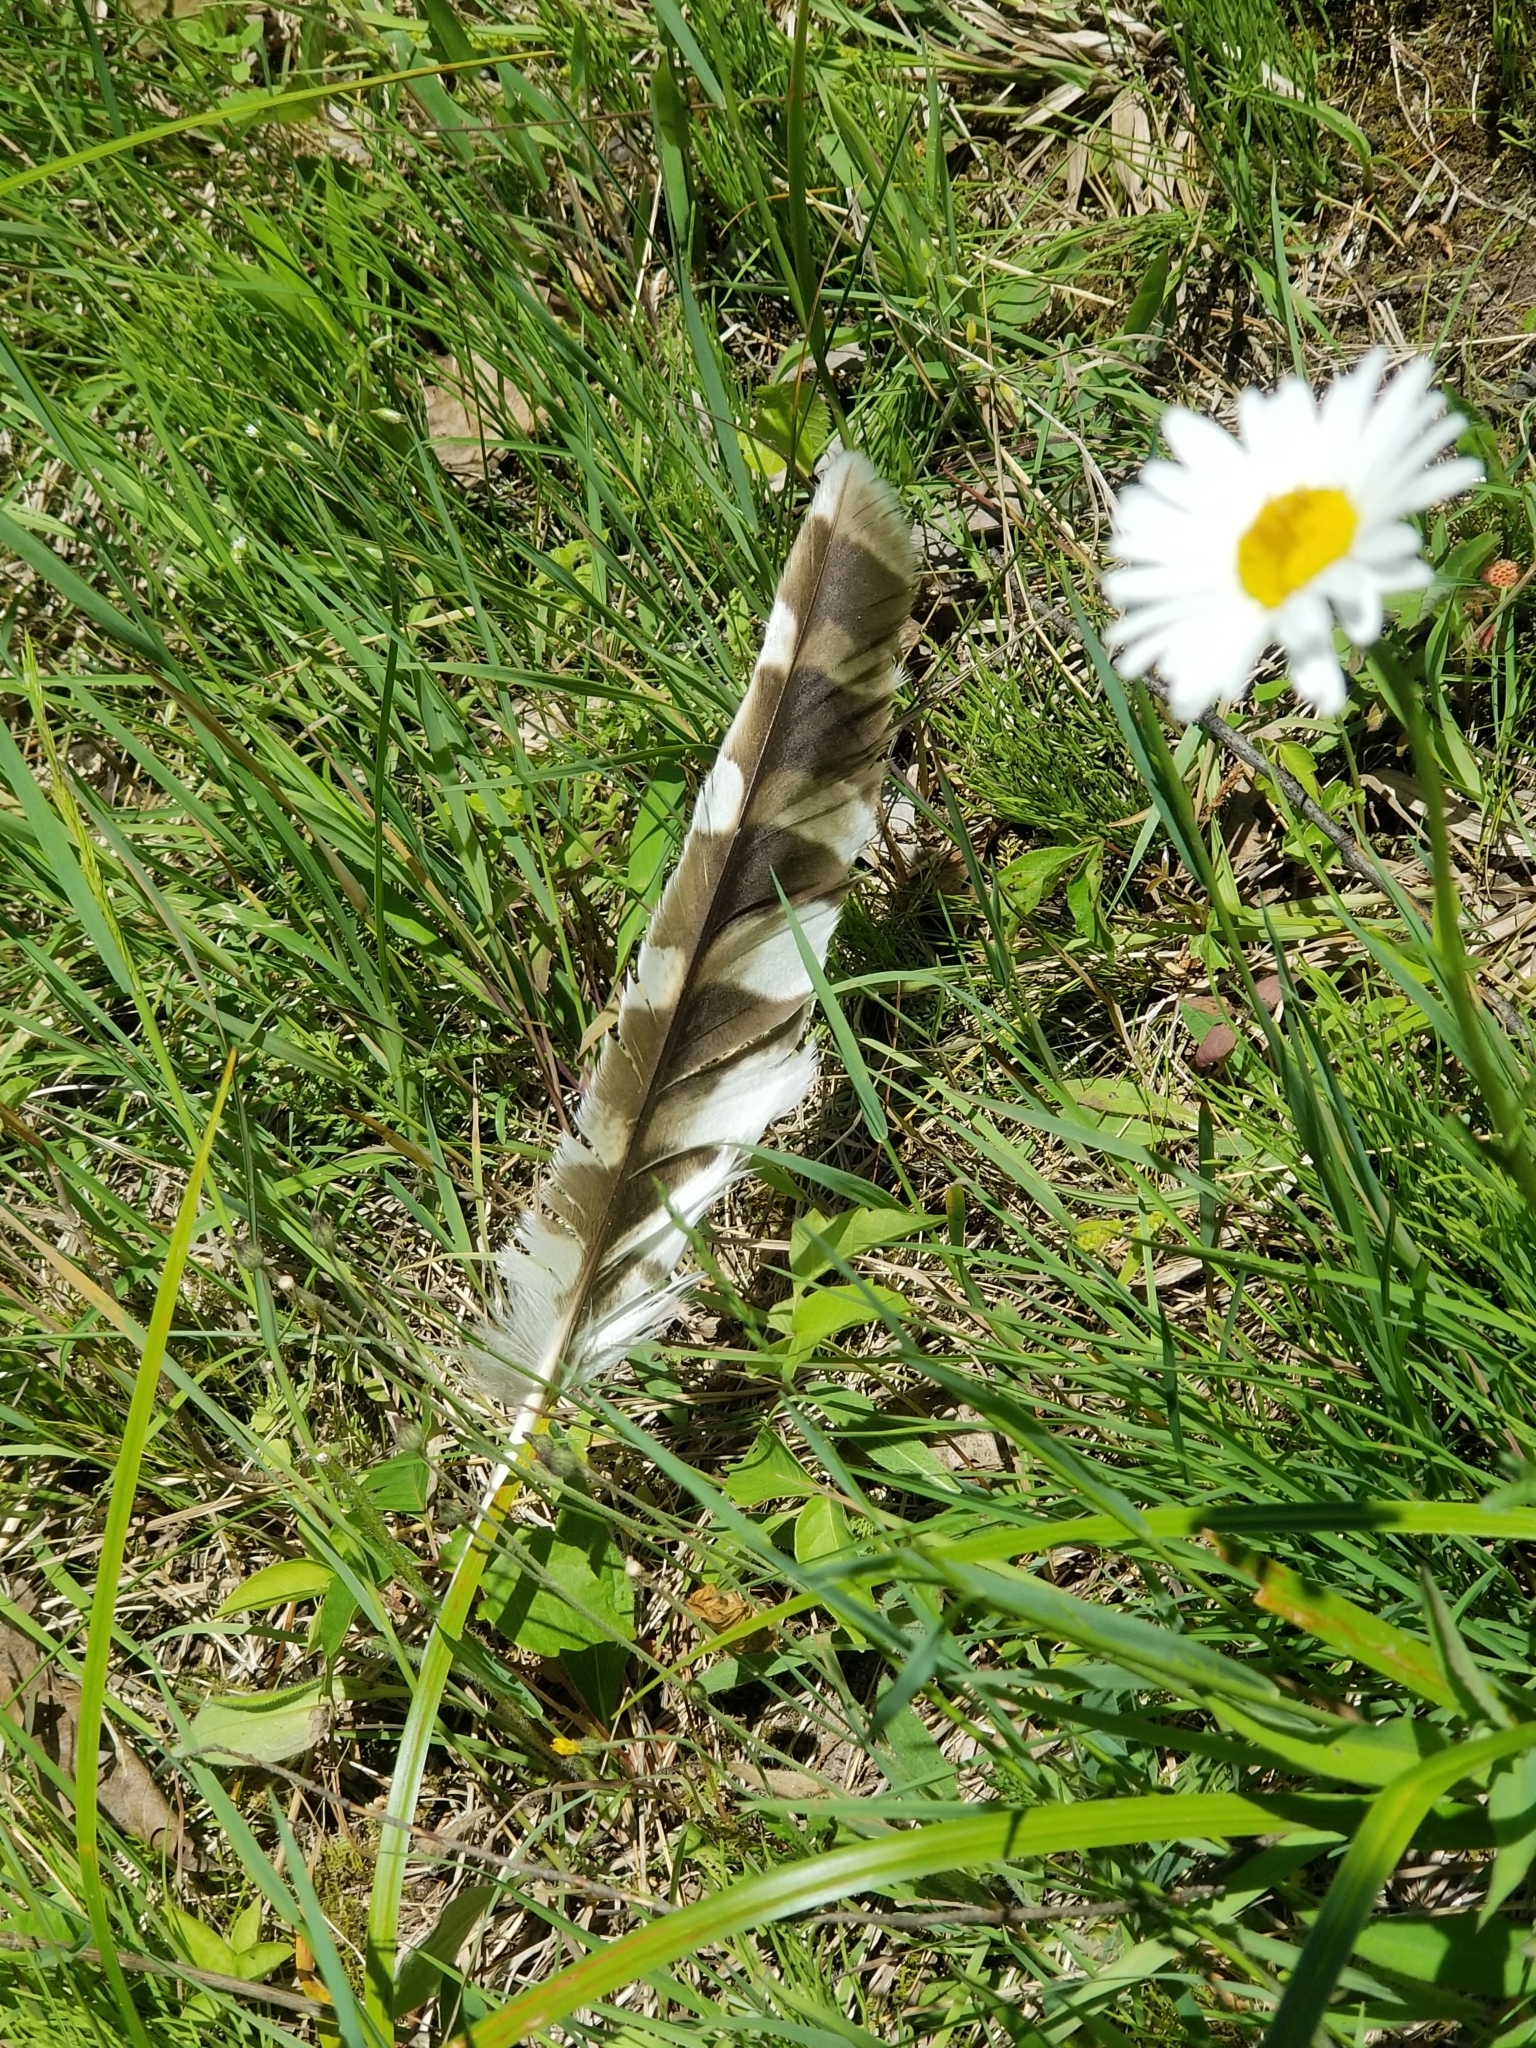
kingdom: Animalia
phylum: Chordata
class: Aves
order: Strigiformes
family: Strigidae
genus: Strix
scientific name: Strix varia
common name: Barred owl
